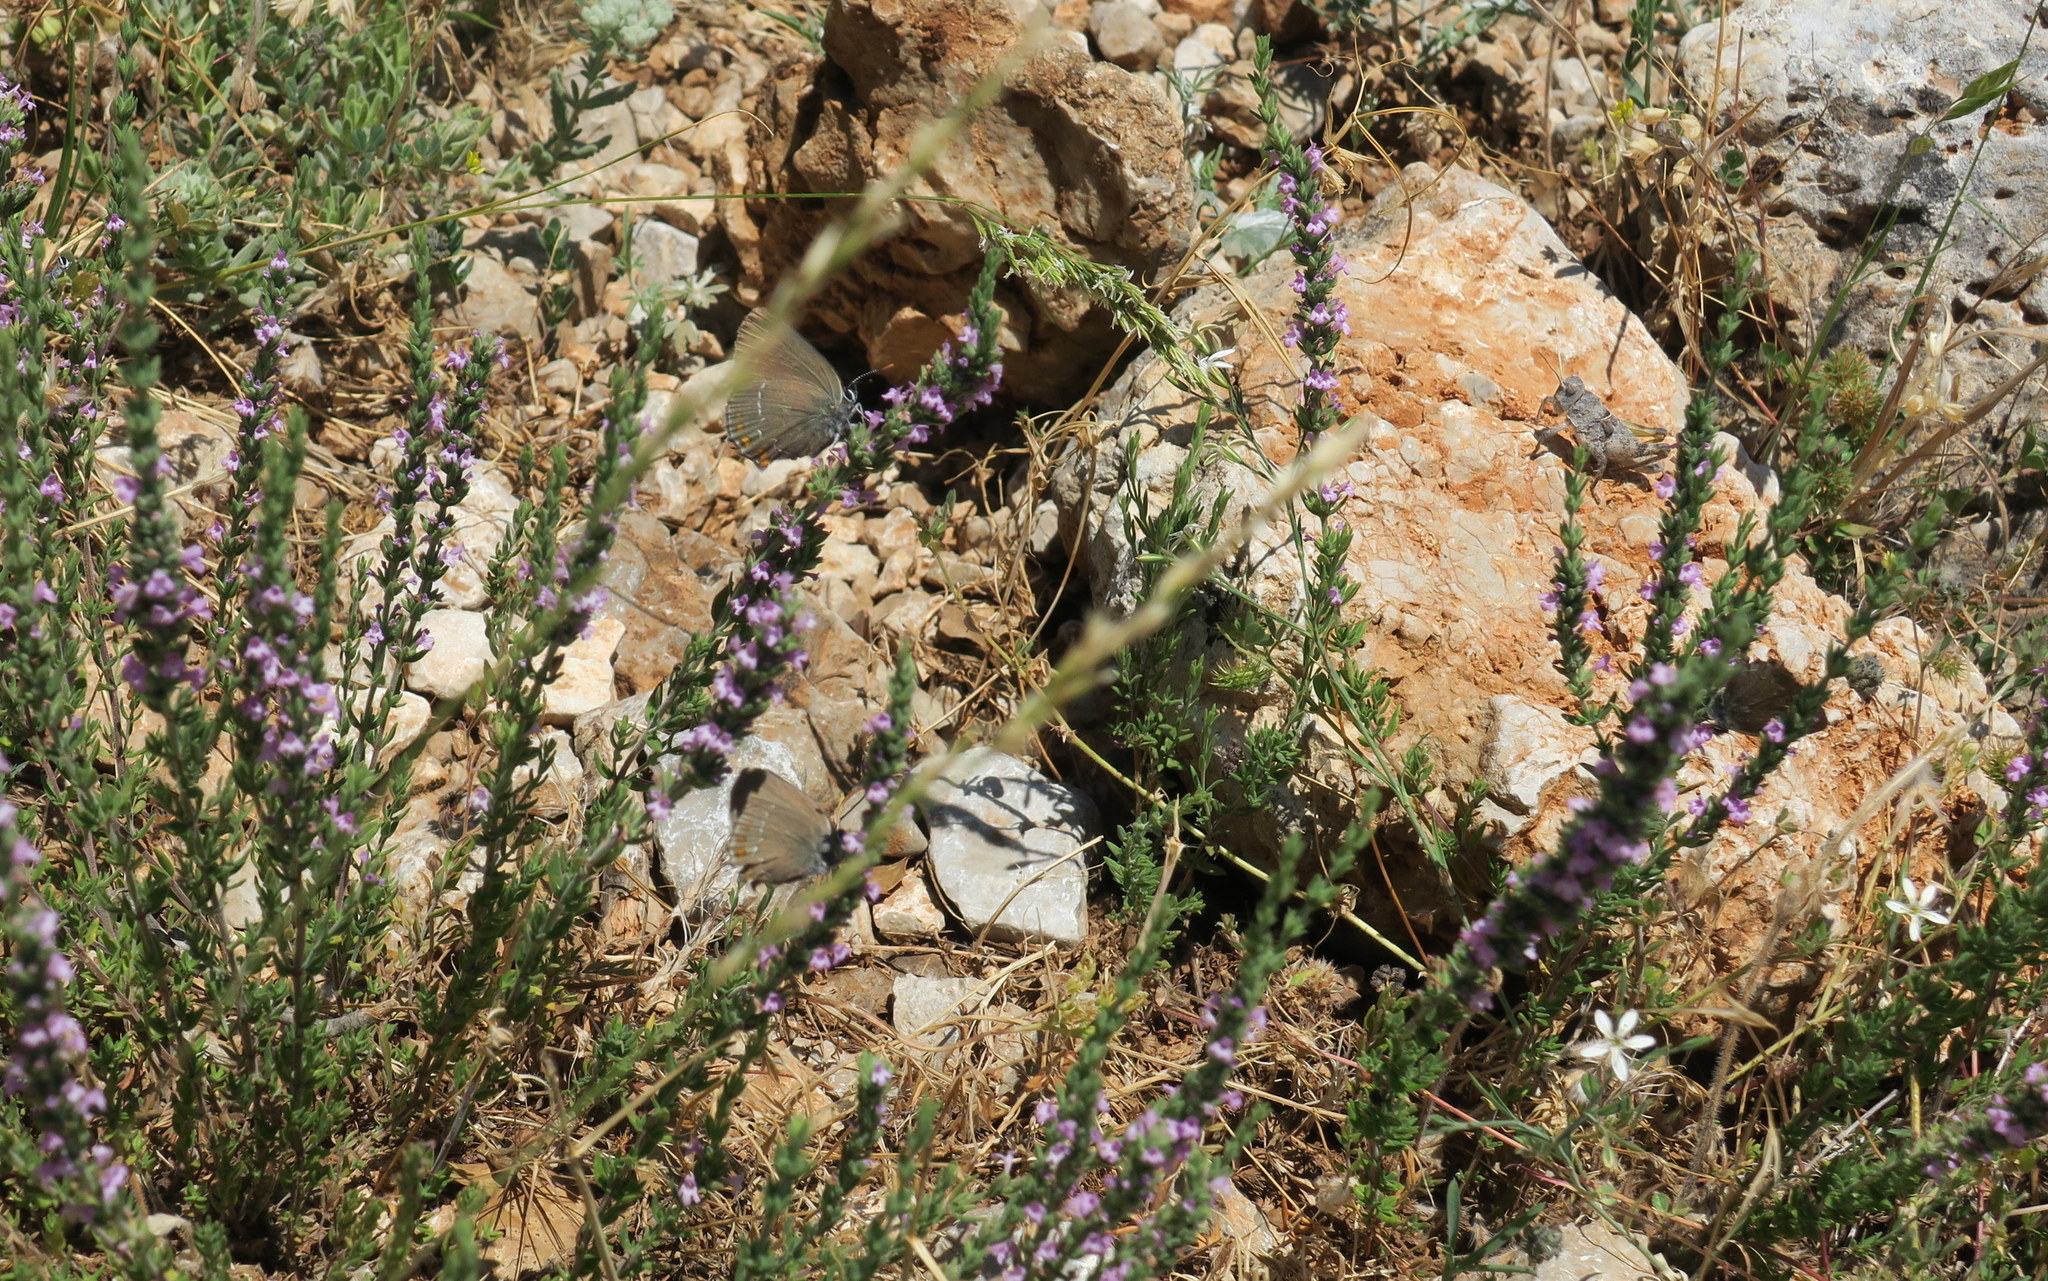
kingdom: Animalia
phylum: Arthropoda
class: Insecta
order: Lepidoptera
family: Lycaenidae
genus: Nordmannia
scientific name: Nordmannia ilicis
